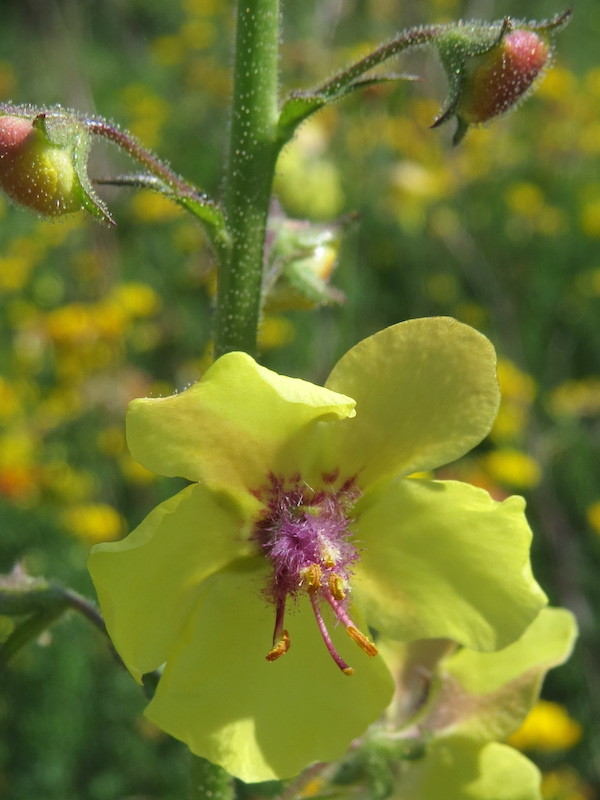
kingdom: Plantae
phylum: Tracheophyta
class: Magnoliopsida
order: Lamiales
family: Scrophulariaceae
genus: Verbascum
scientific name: Verbascum blattaria
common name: Moth mullein
